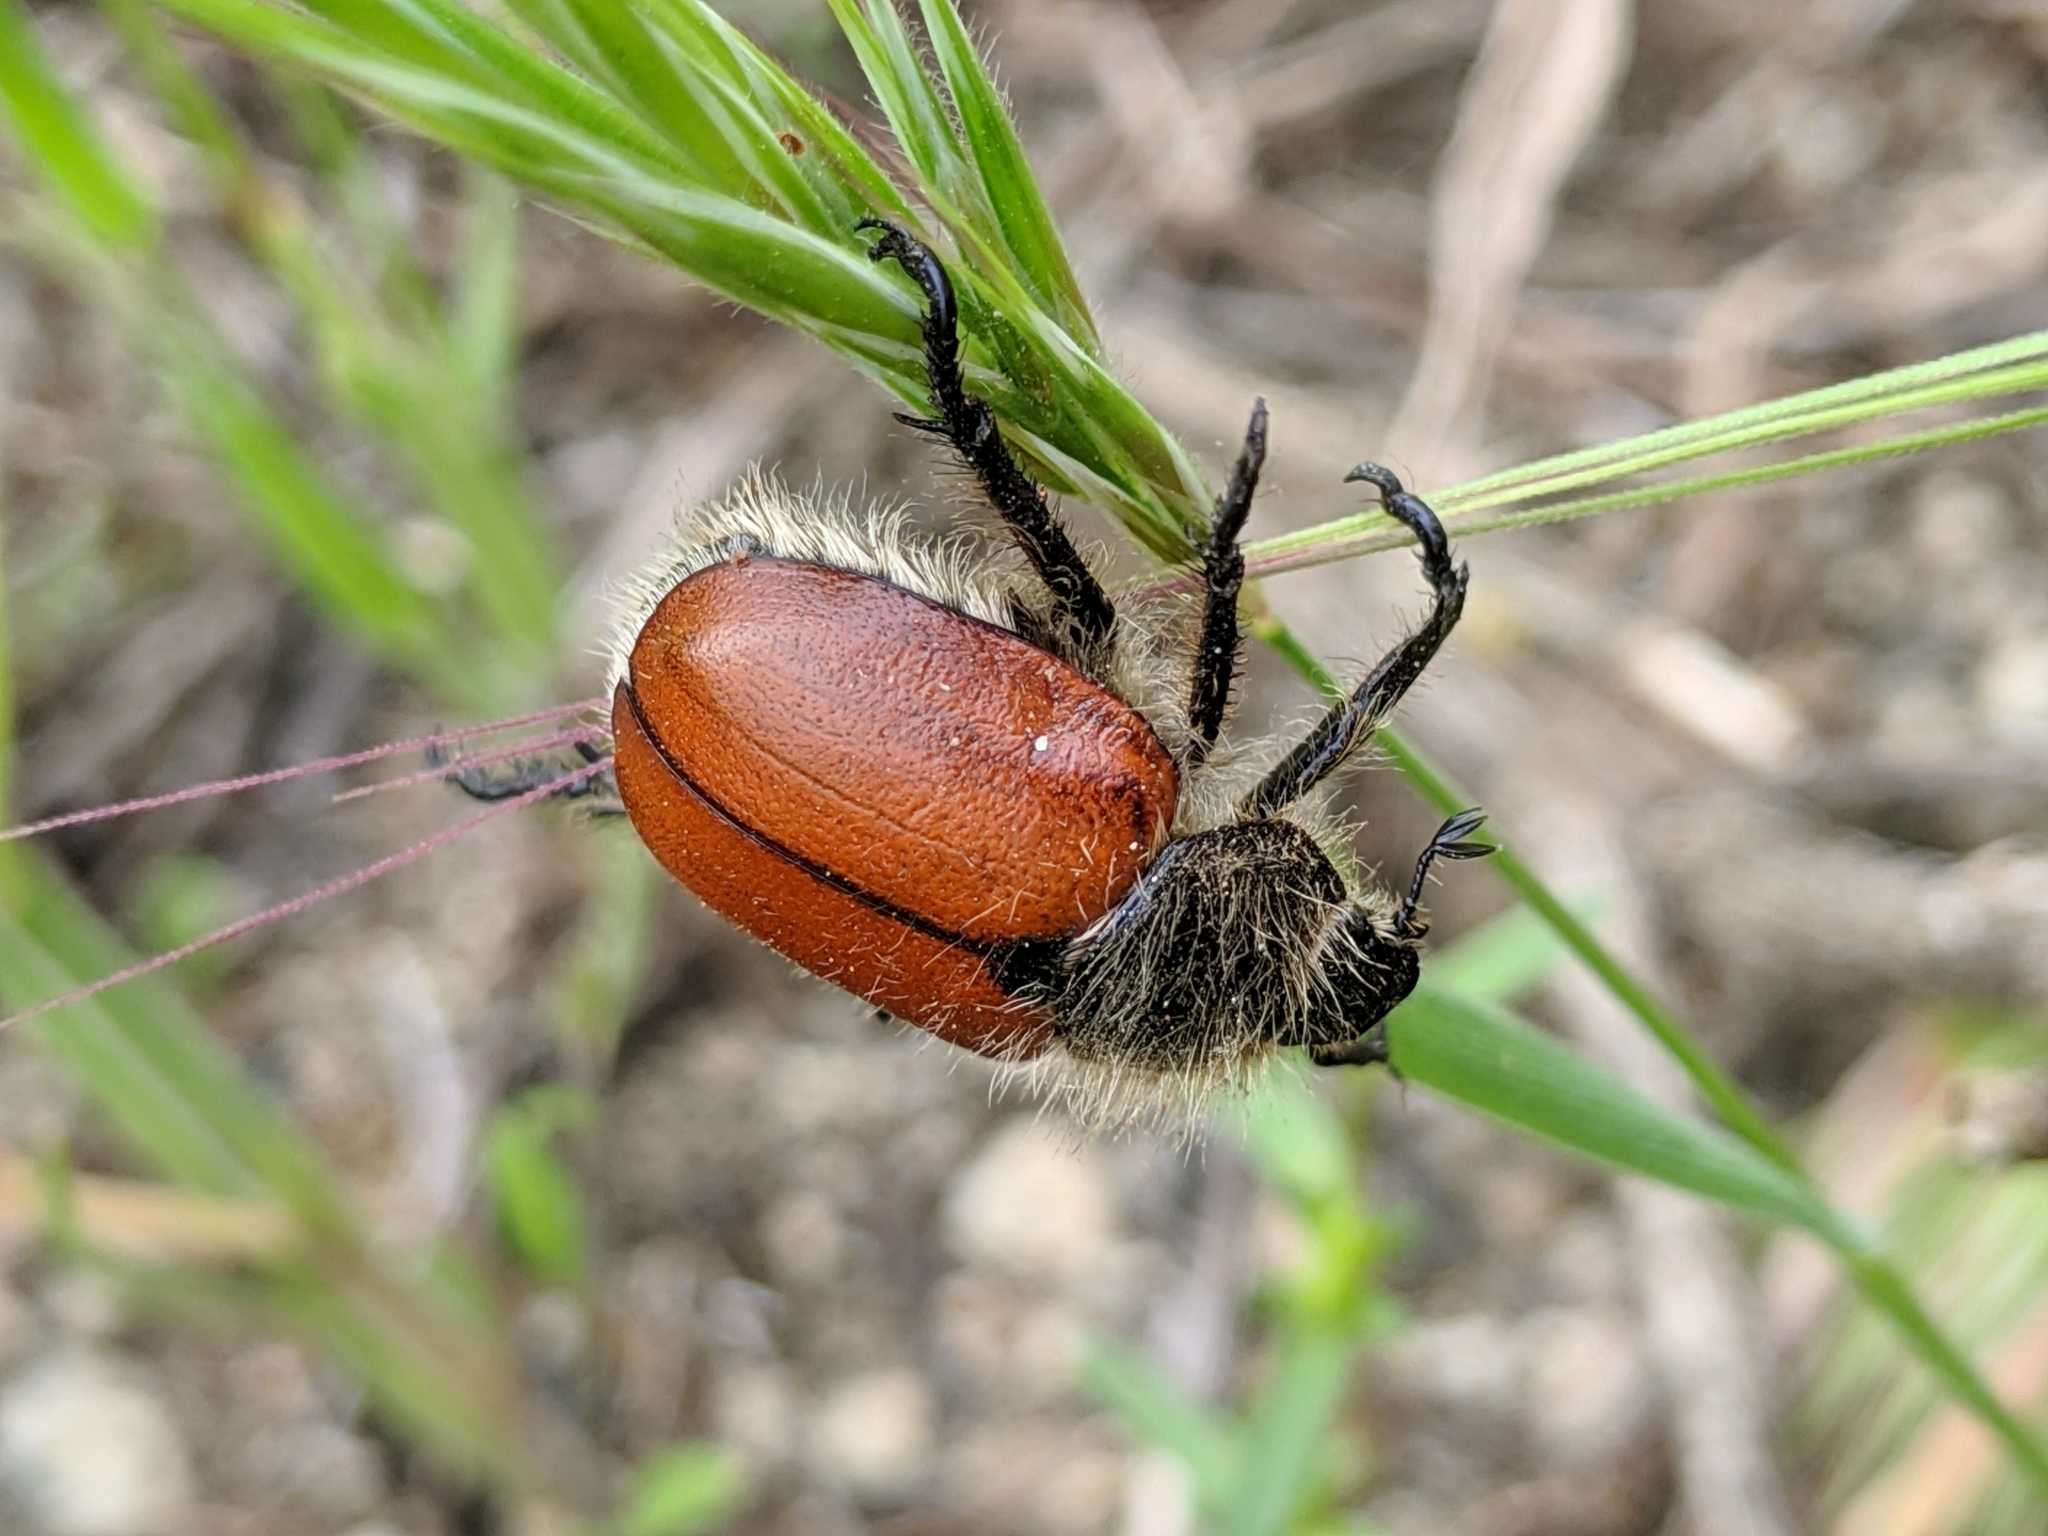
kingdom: Animalia
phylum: Arthropoda
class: Insecta
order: Coleoptera
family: Scarabaeidae
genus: Paracotalpa
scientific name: Paracotalpa ursina
